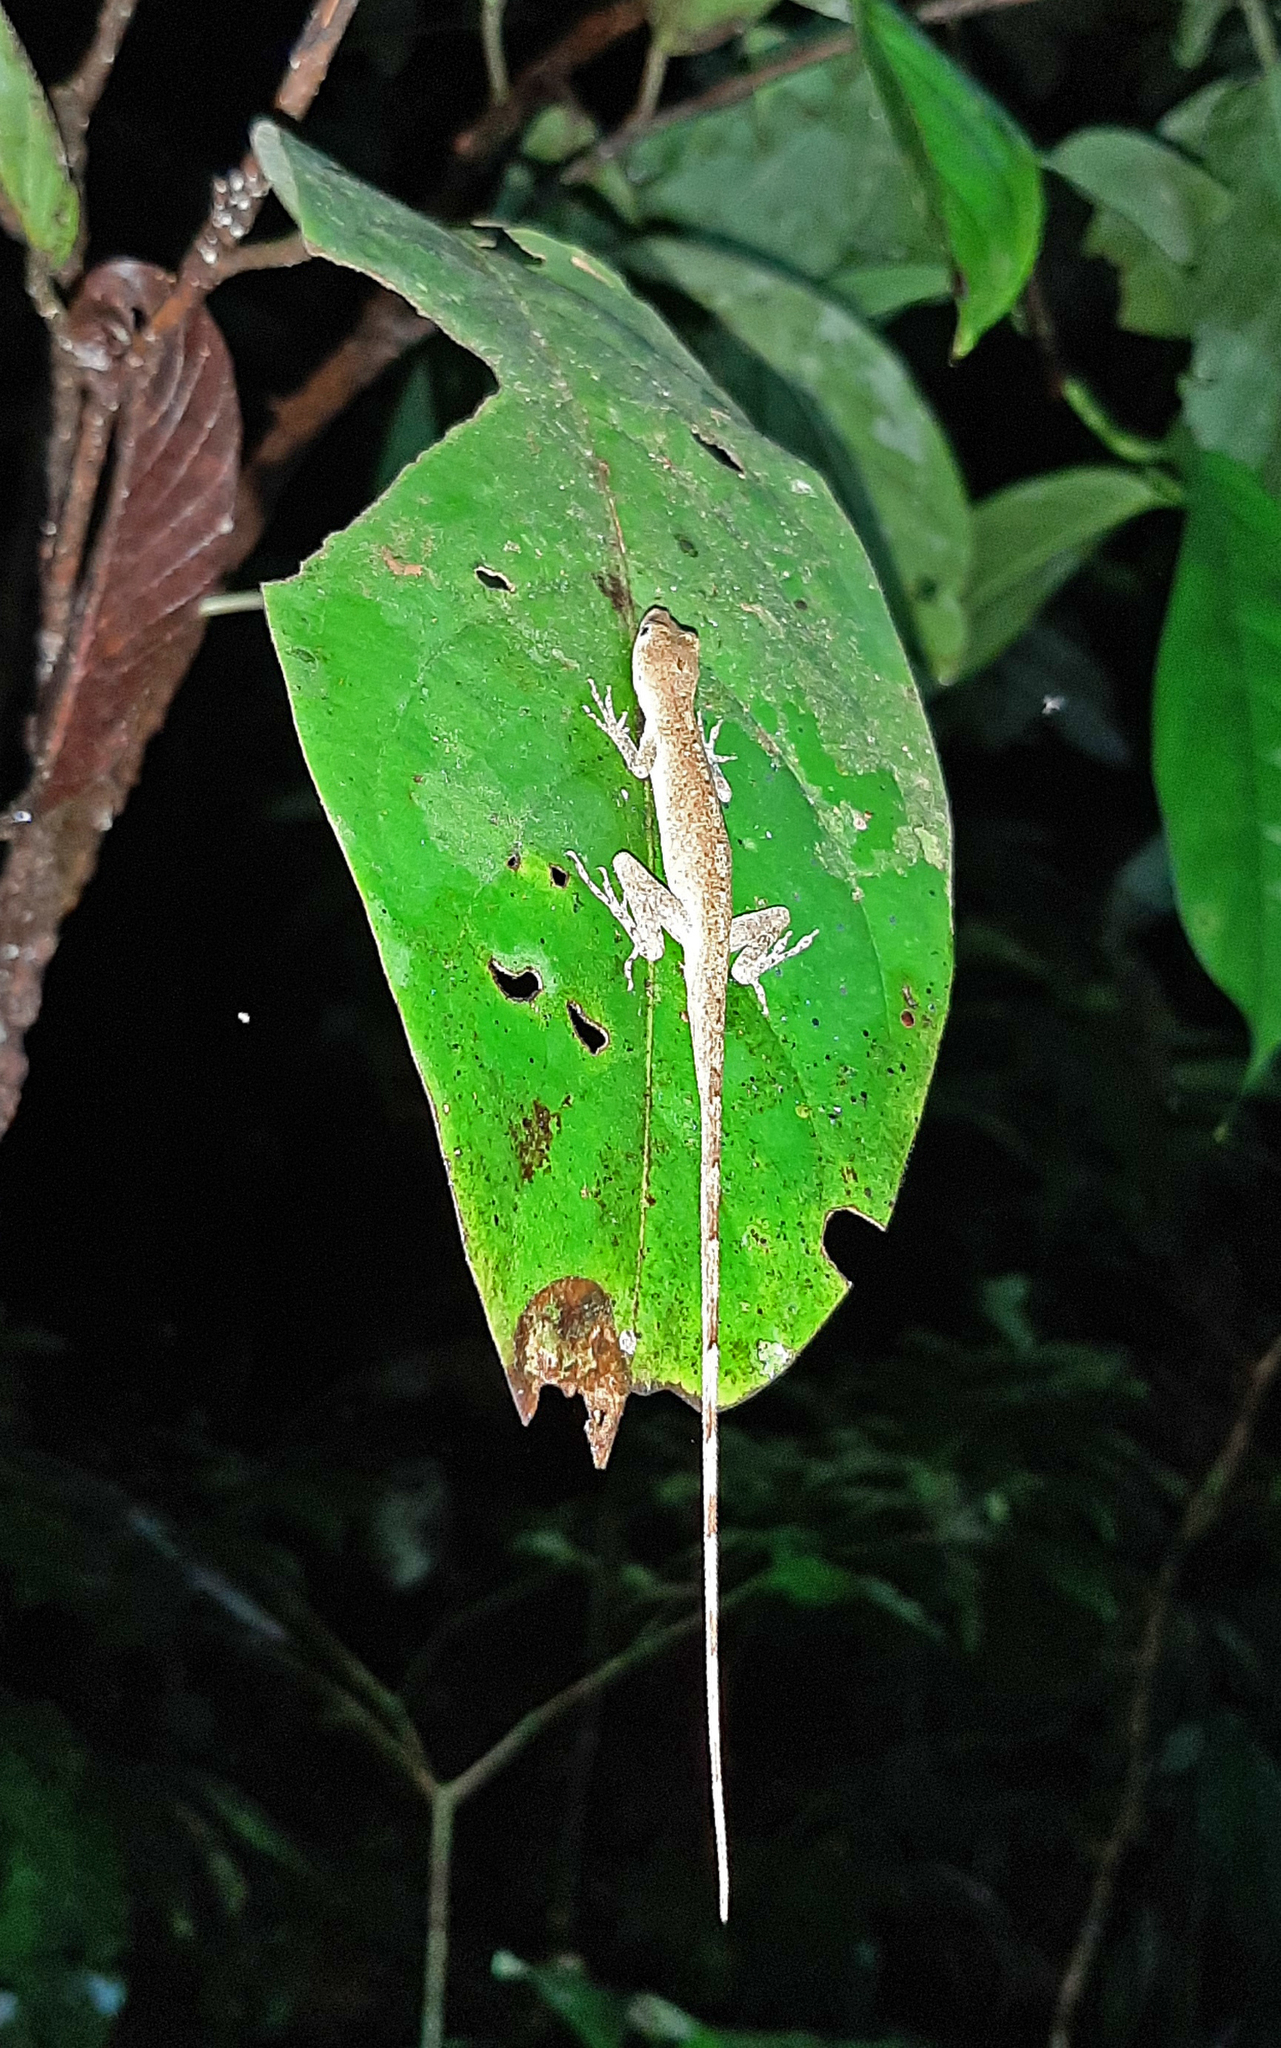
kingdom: Animalia
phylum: Chordata
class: Squamata
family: Dactyloidae
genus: Anolis
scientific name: Anolis fuscoauratus
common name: Brown-eared anole
